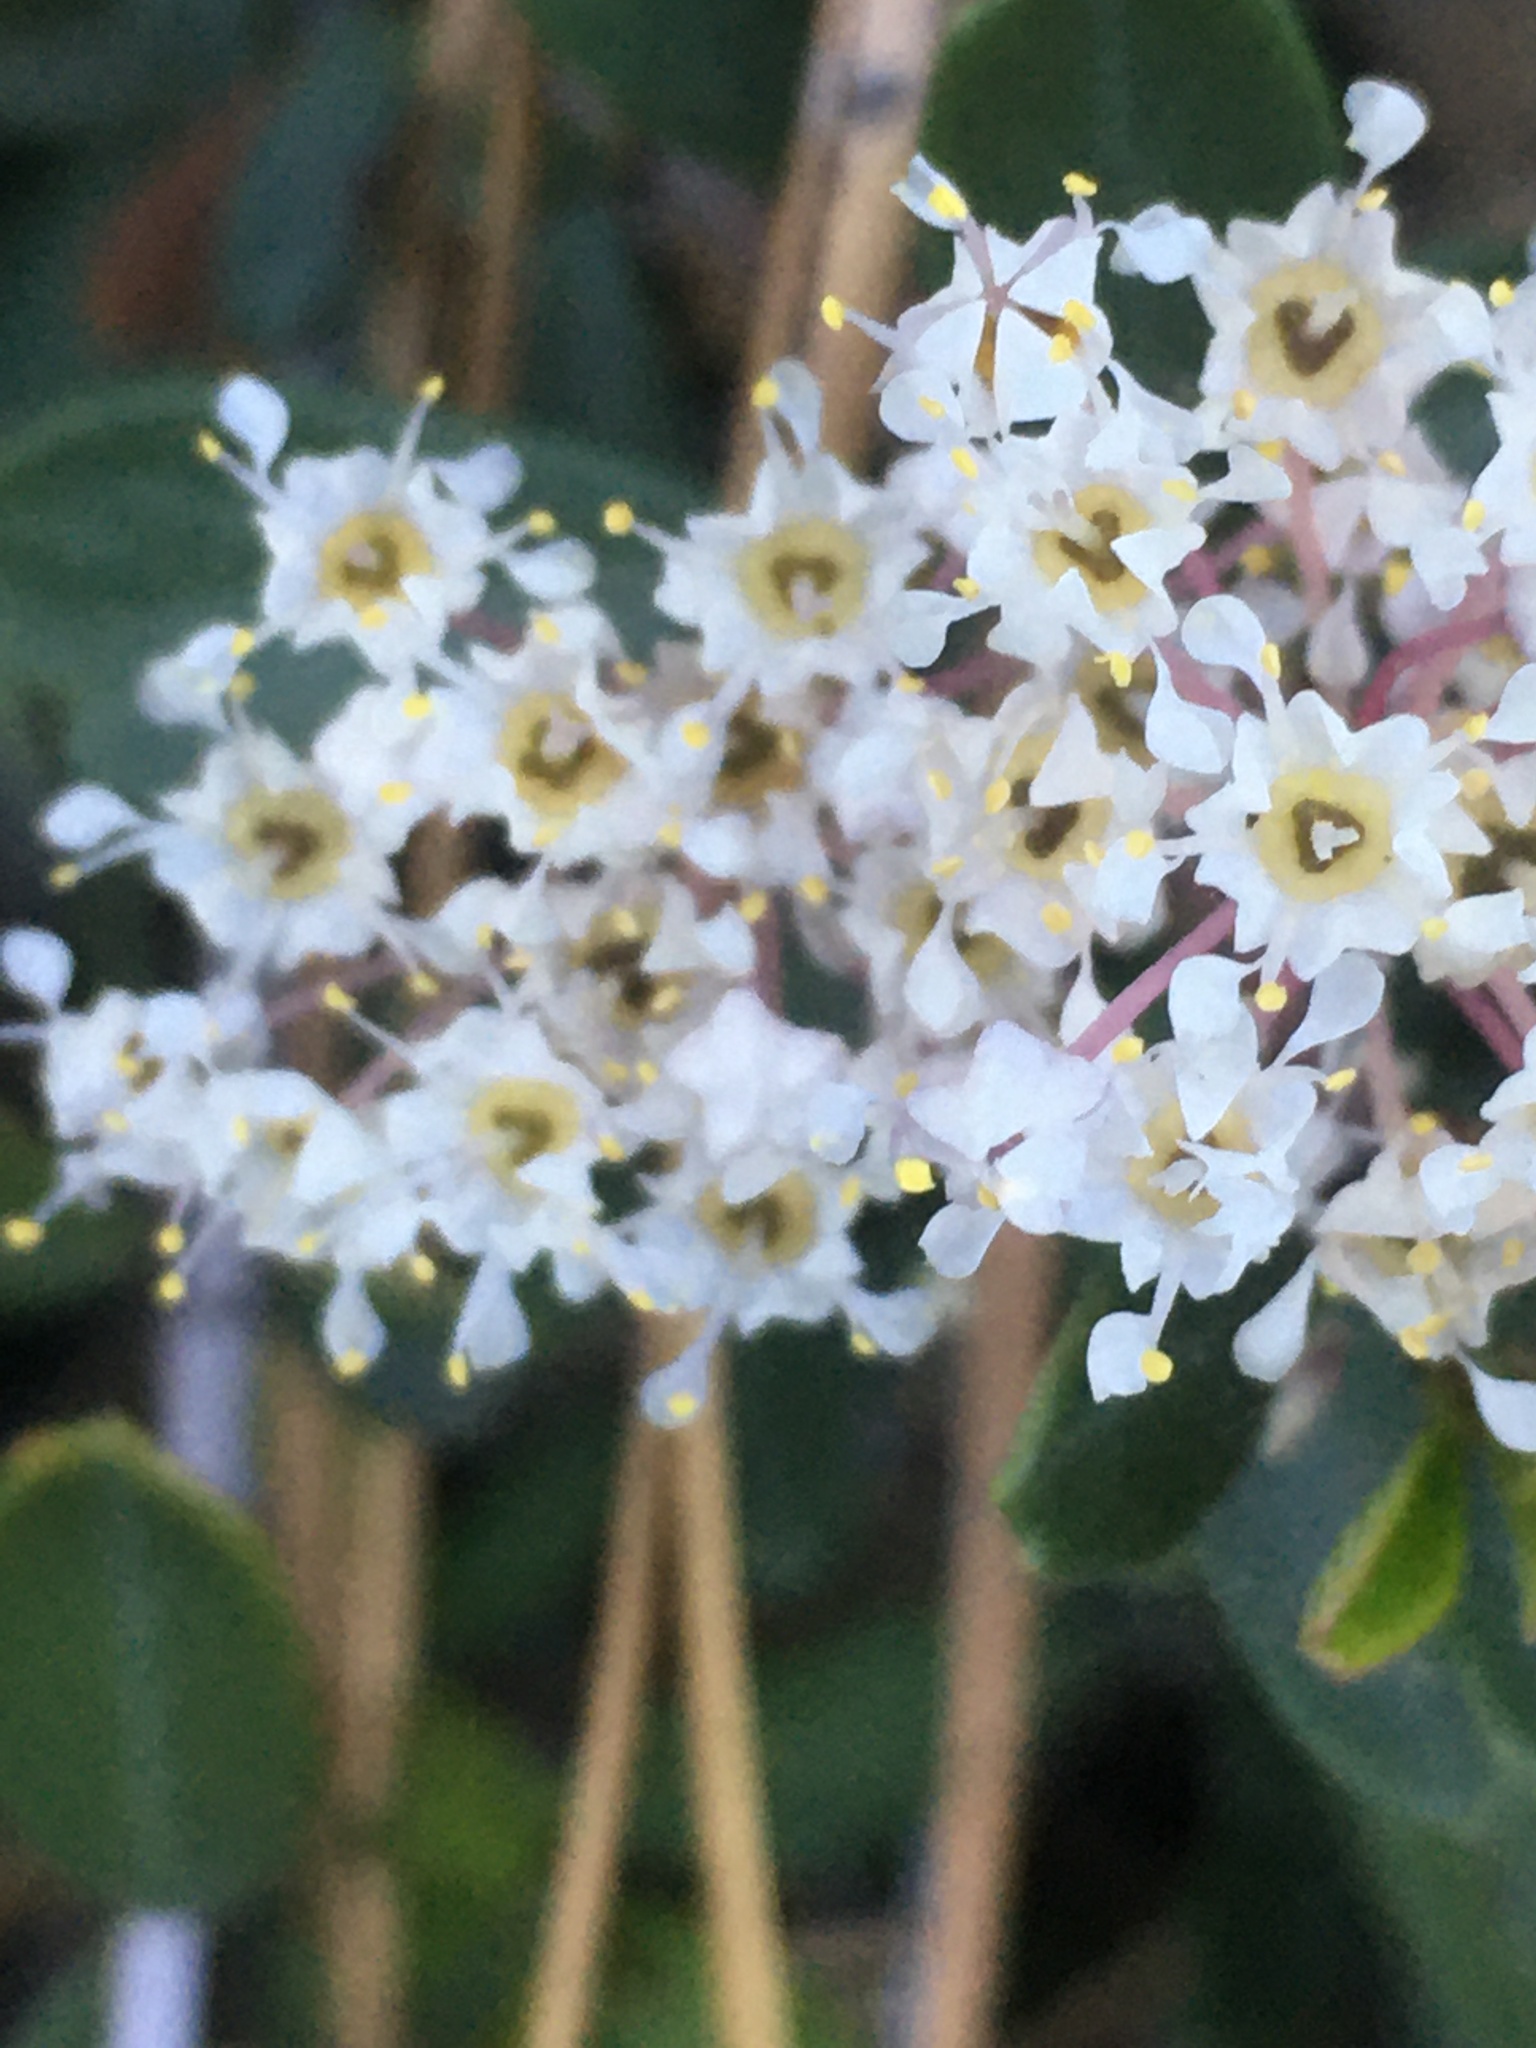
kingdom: Plantae
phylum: Tracheophyta
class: Magnoliopsida
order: Rosales
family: Rhamnaceae
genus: Ceanothus
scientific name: Ceanothus cuneatus
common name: Cuneate ceanothus
